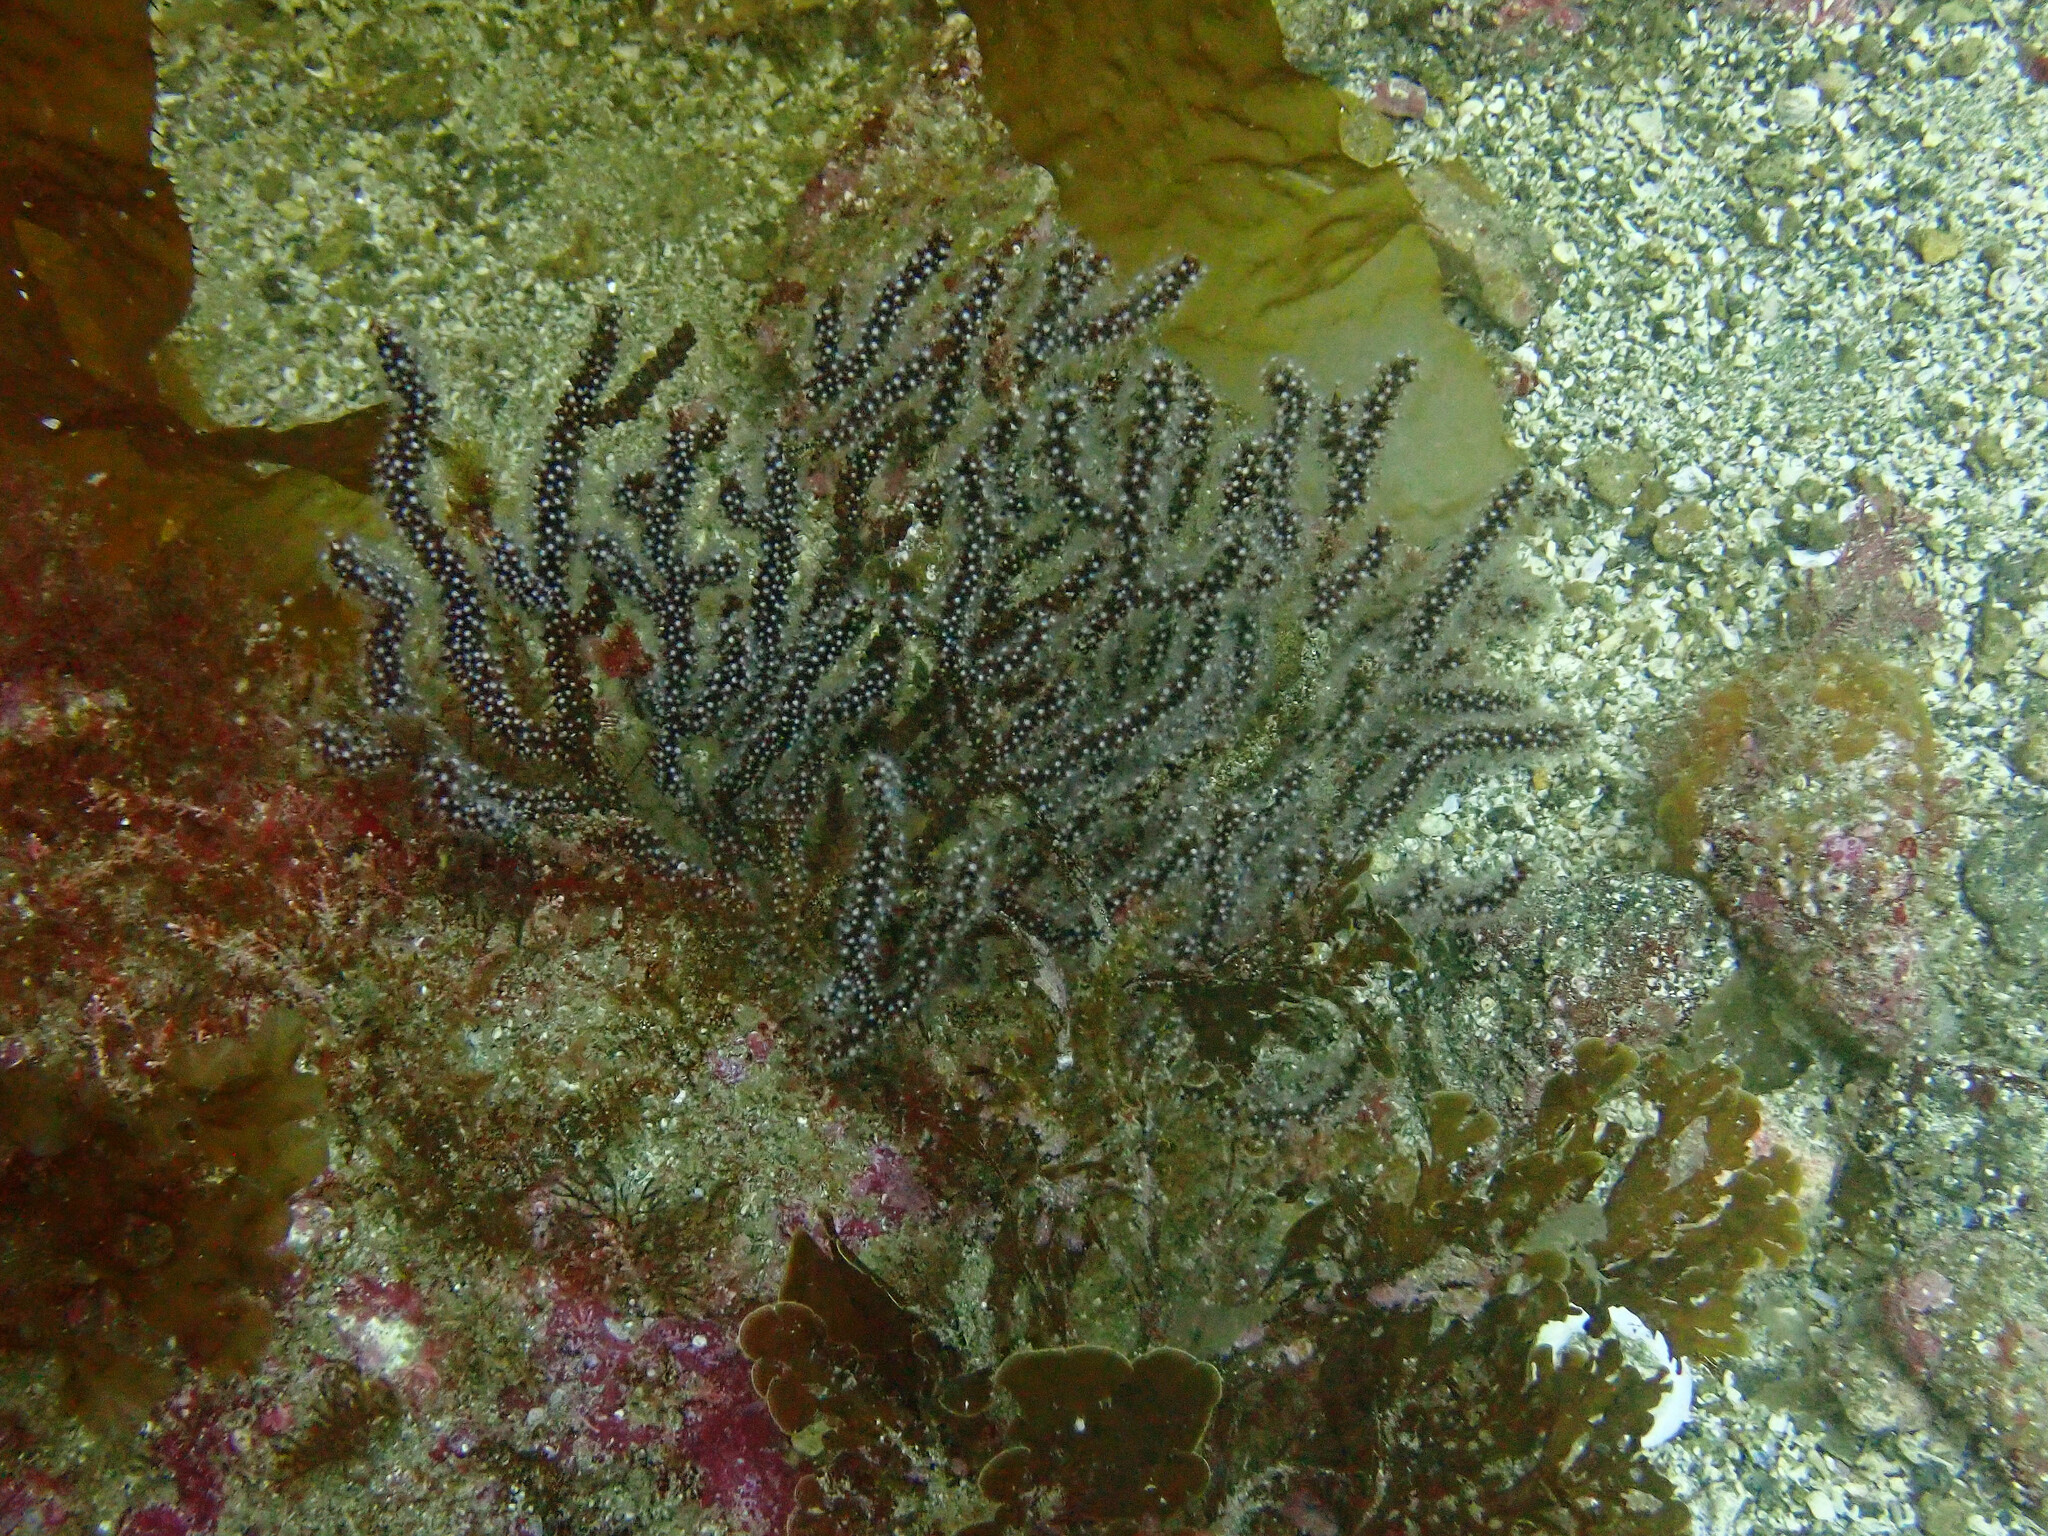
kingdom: Animalia
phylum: Cnidaria
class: Anthozoa
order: Malacalcyonacea
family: Plexauridae
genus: Muricea
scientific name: Muricea fruticosa
